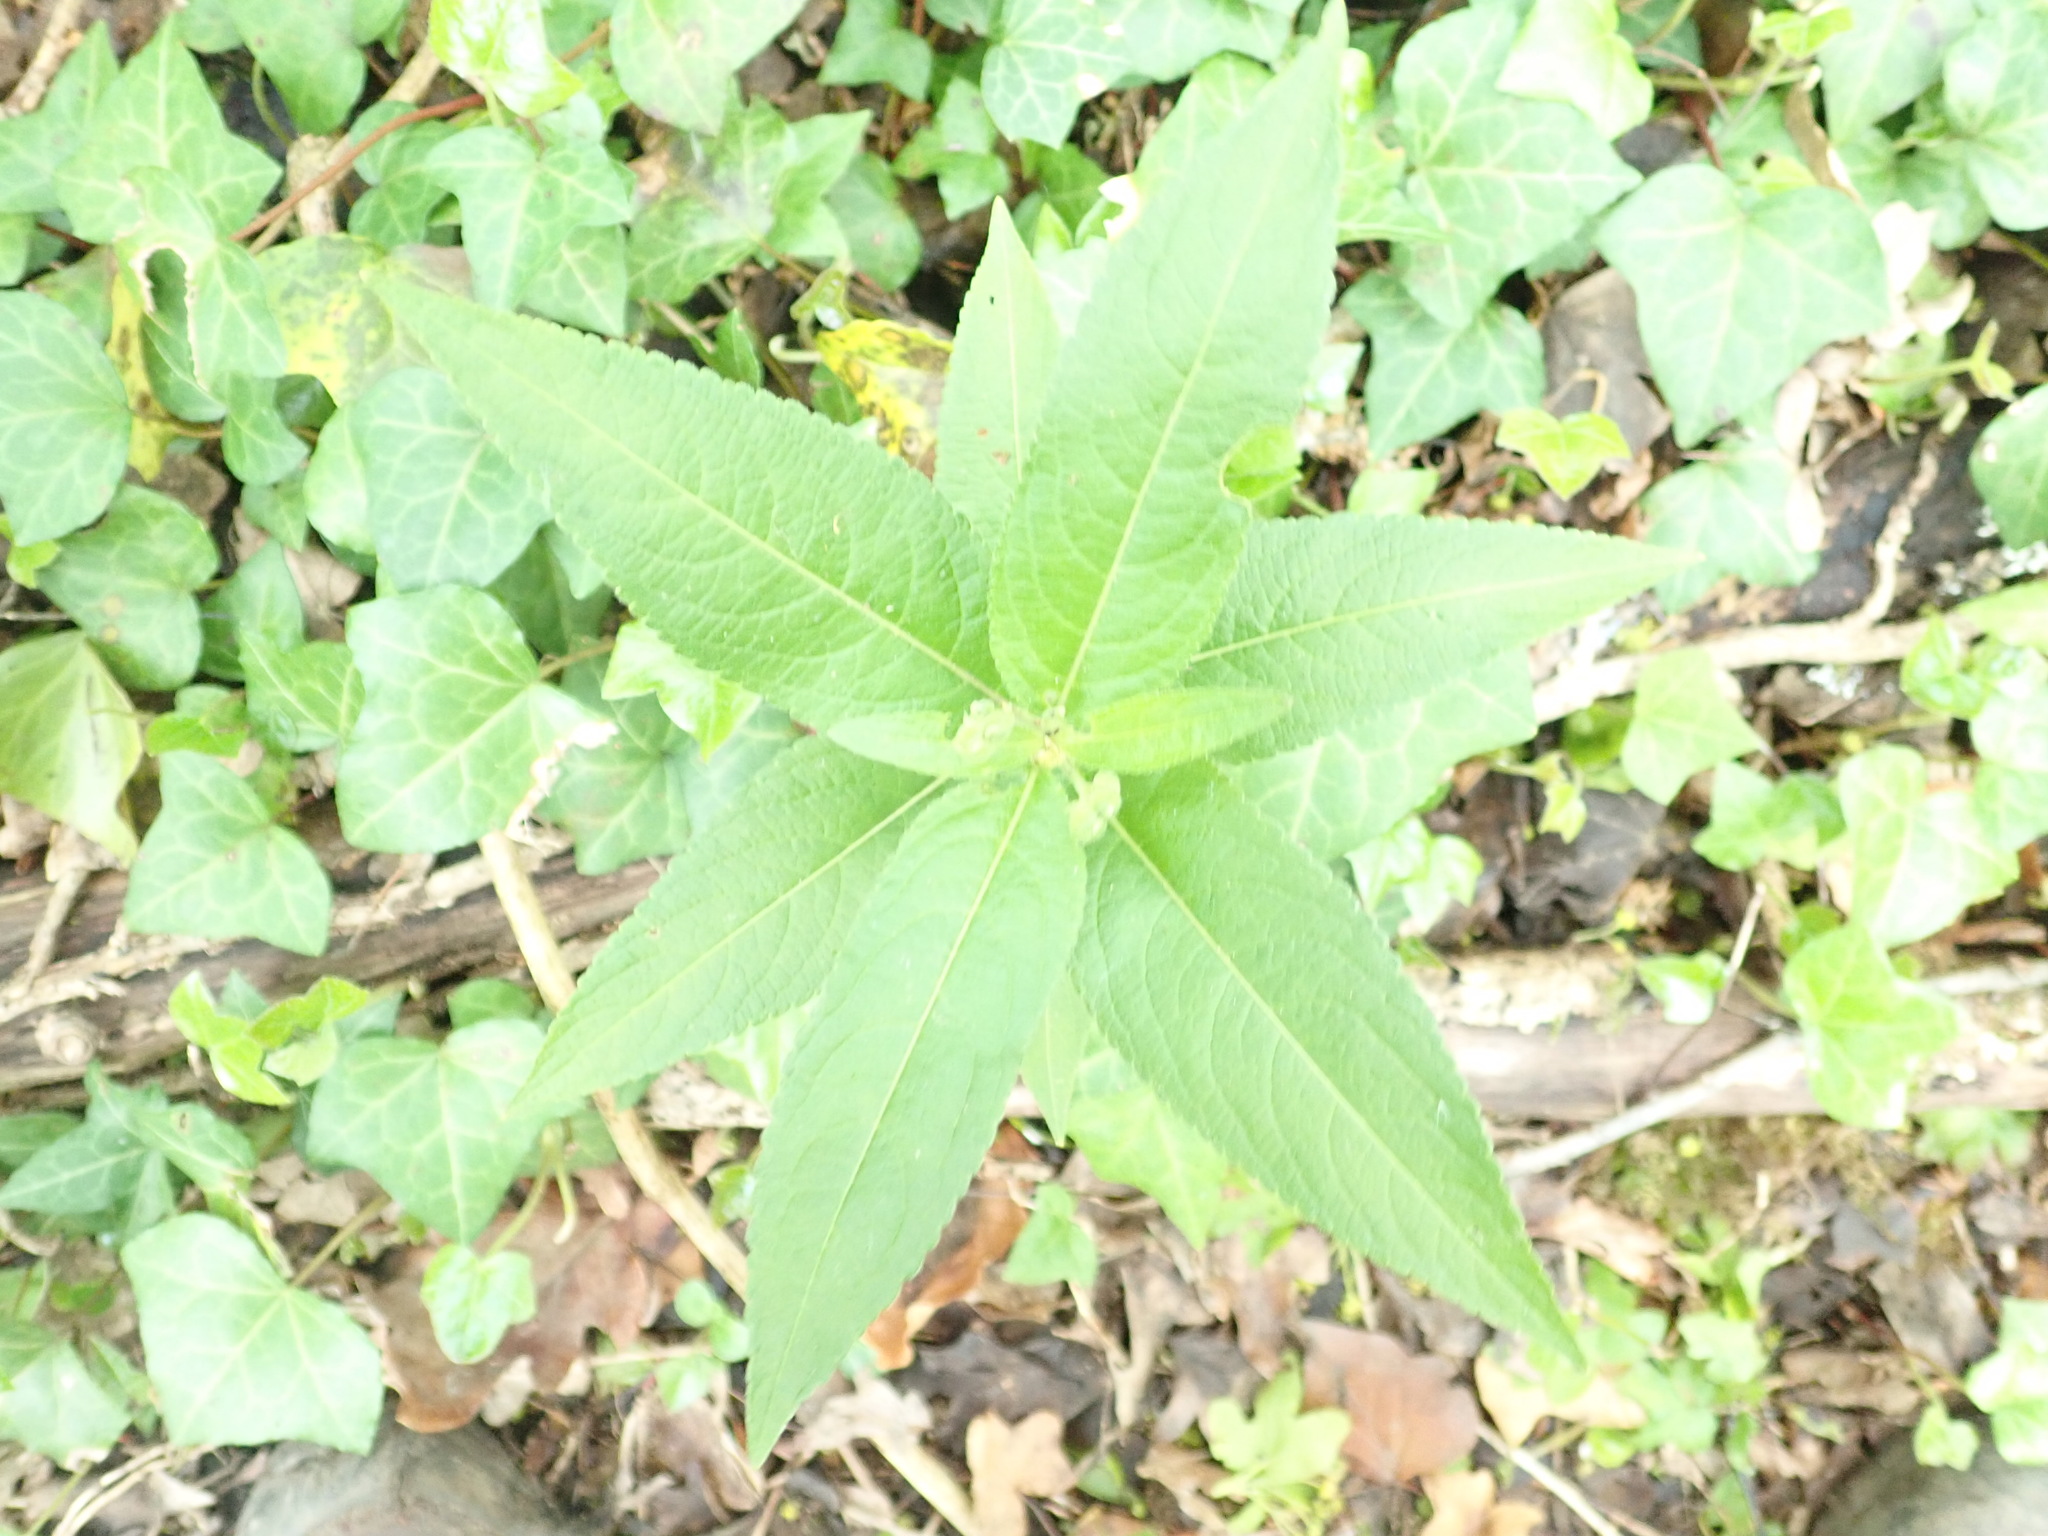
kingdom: Plantae
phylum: Tracheophyta
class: Magnoliopsida
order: Malpighiales
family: Euphorbiaceae
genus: Mercurialis
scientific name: Mercurialis perennis
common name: Dog mercury
